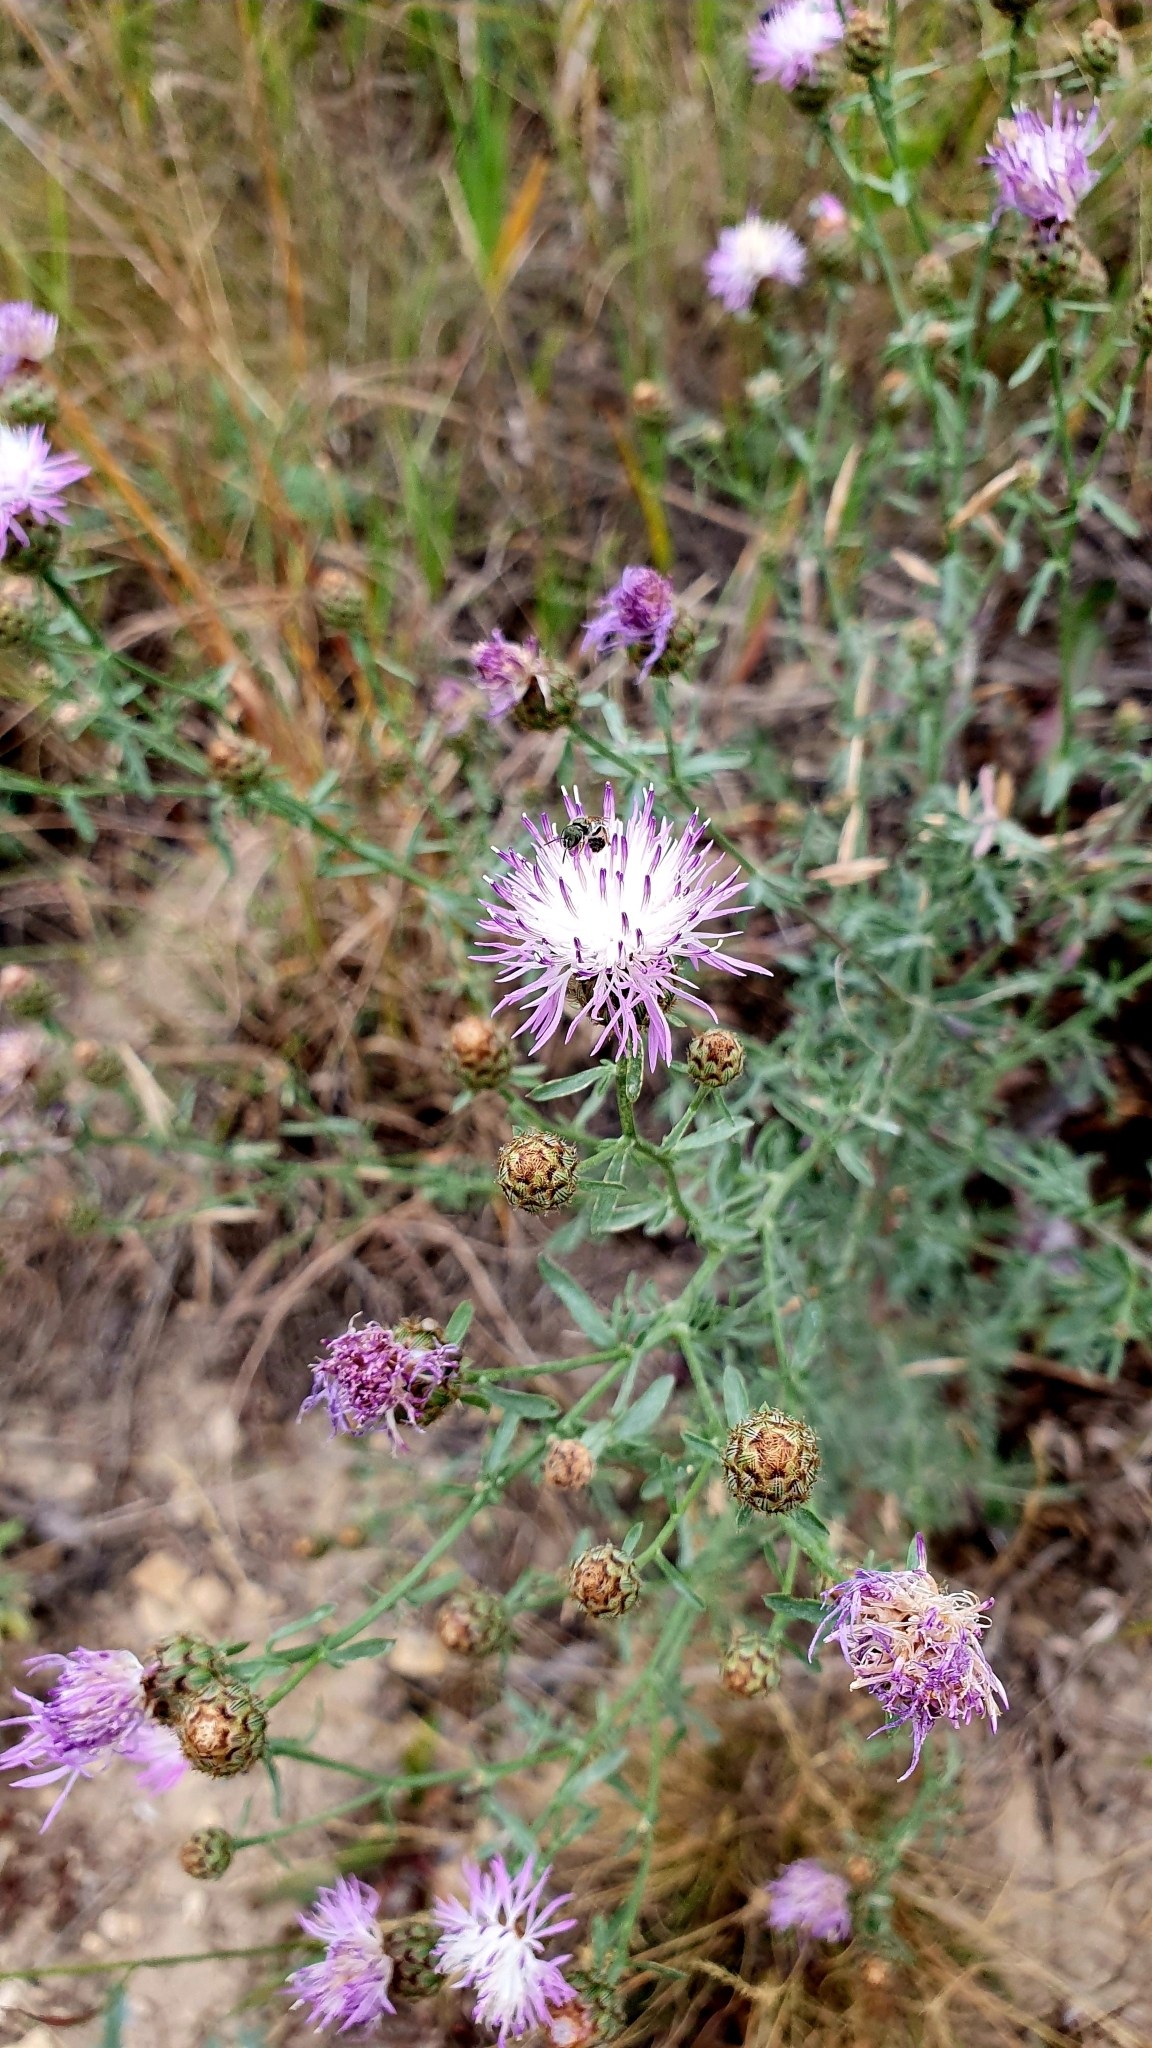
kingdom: Plantae
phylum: Tracheophyta
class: Magnoliopsida
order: Asterales
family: Asteraceae
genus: Centaurea
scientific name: Centaurea stoebe
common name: Spotted knapweed
